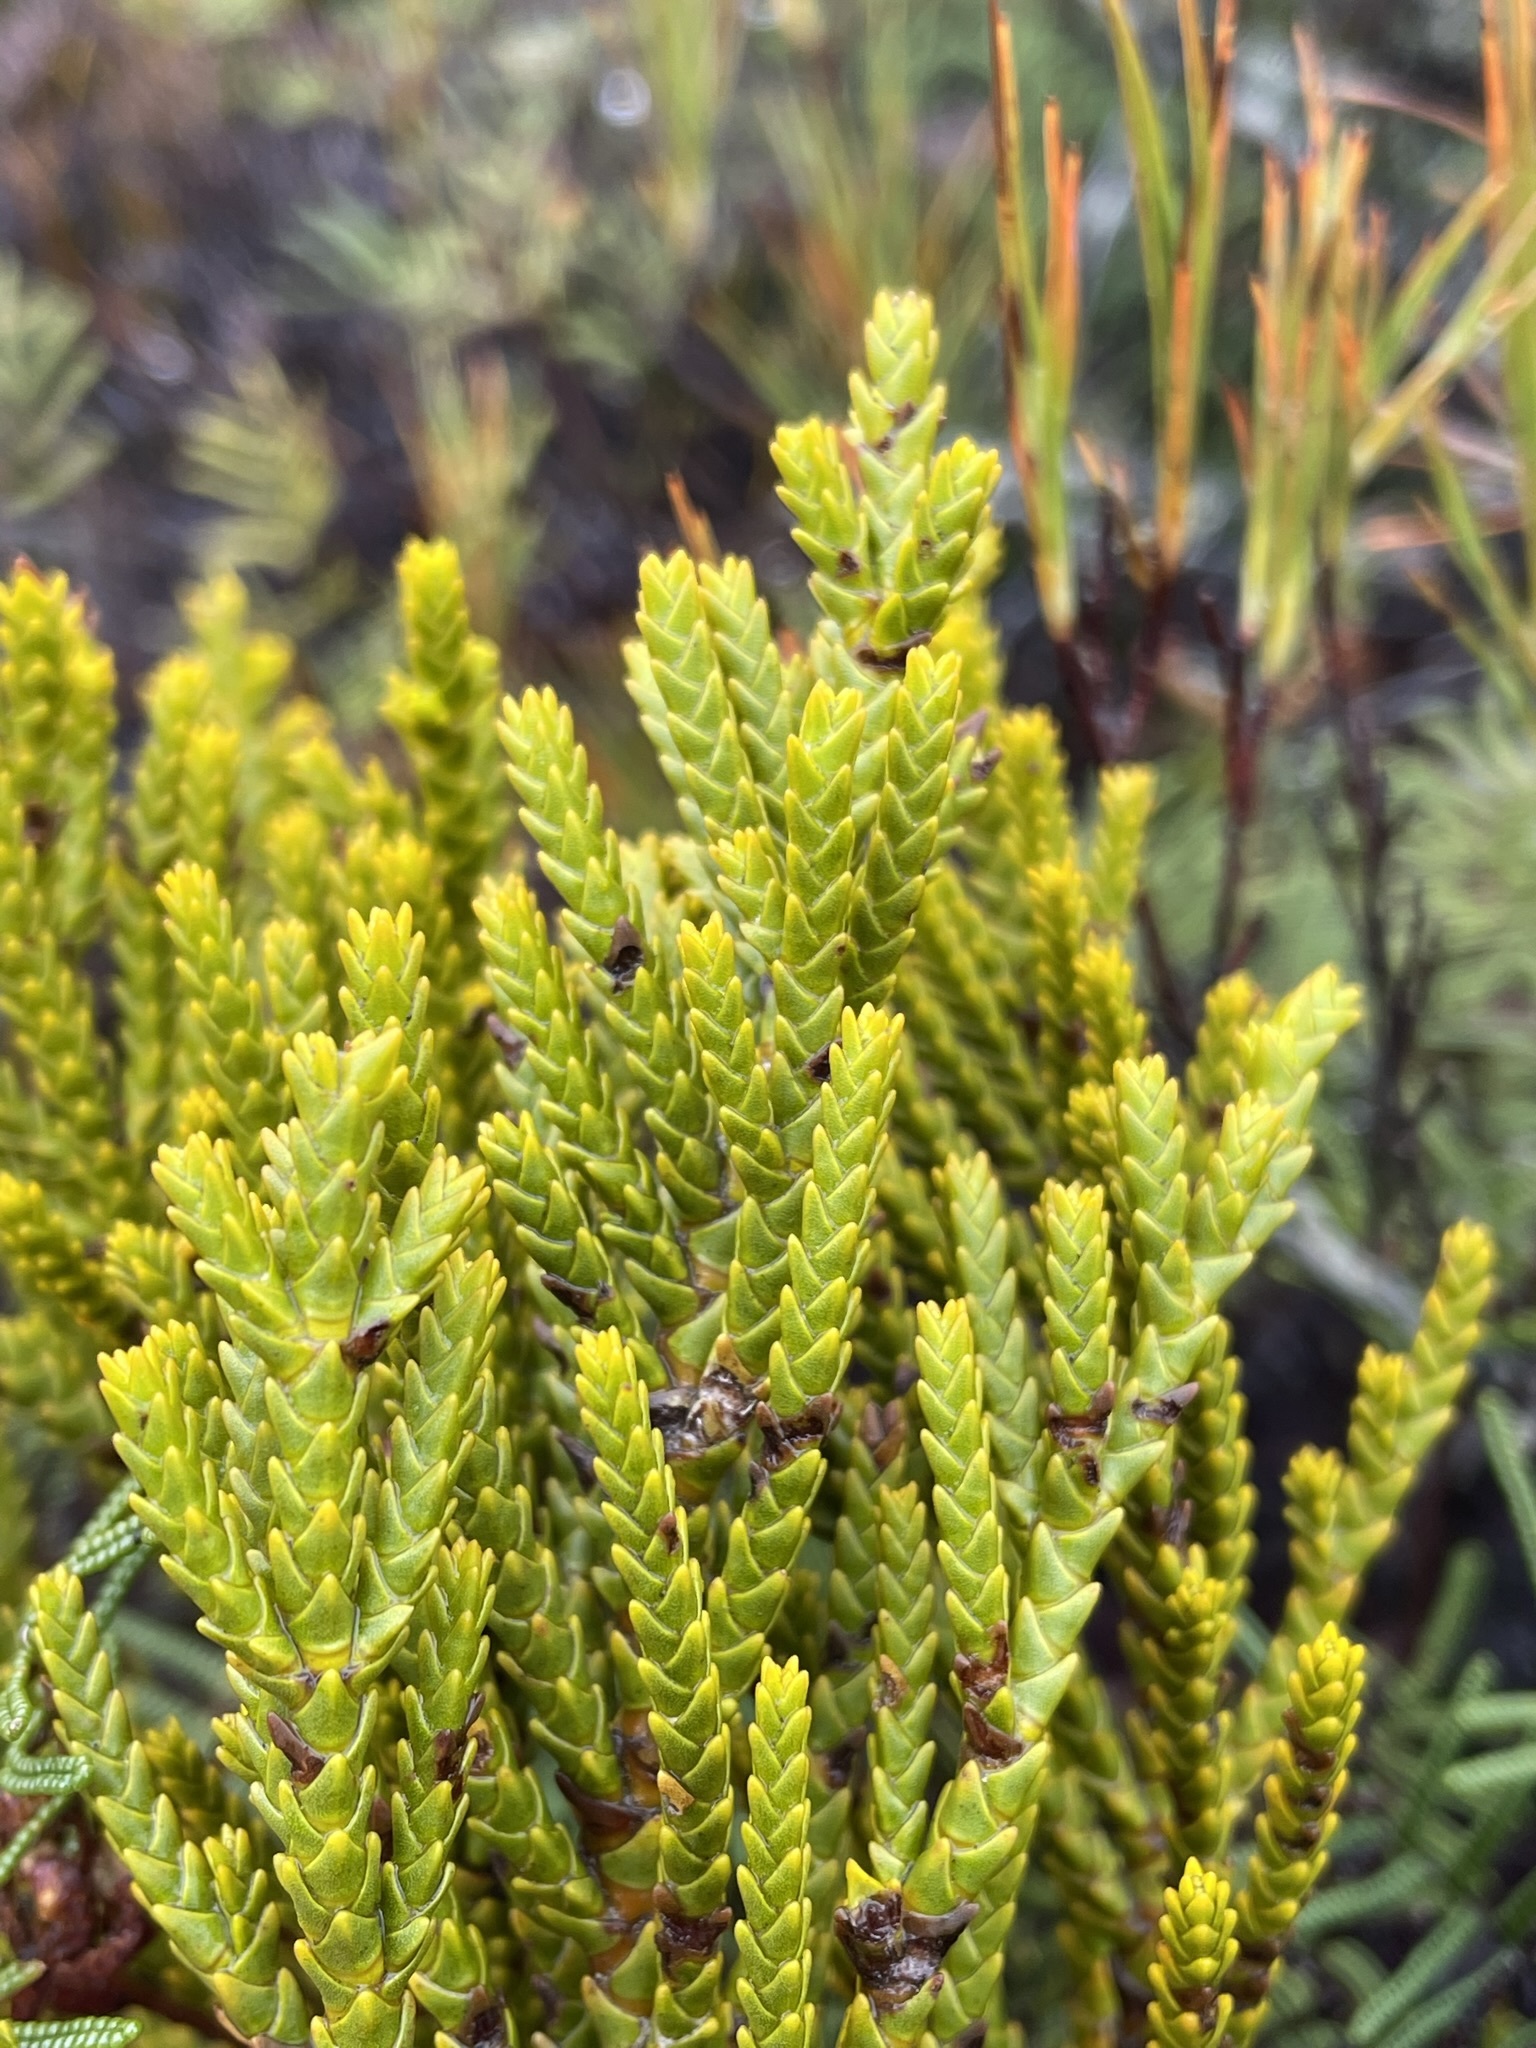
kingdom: Plantae
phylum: Tracheophyta
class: Magnoliopsida
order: Lamiales
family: Plantaginaceae
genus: Veronica
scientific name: Veronica tetragona
